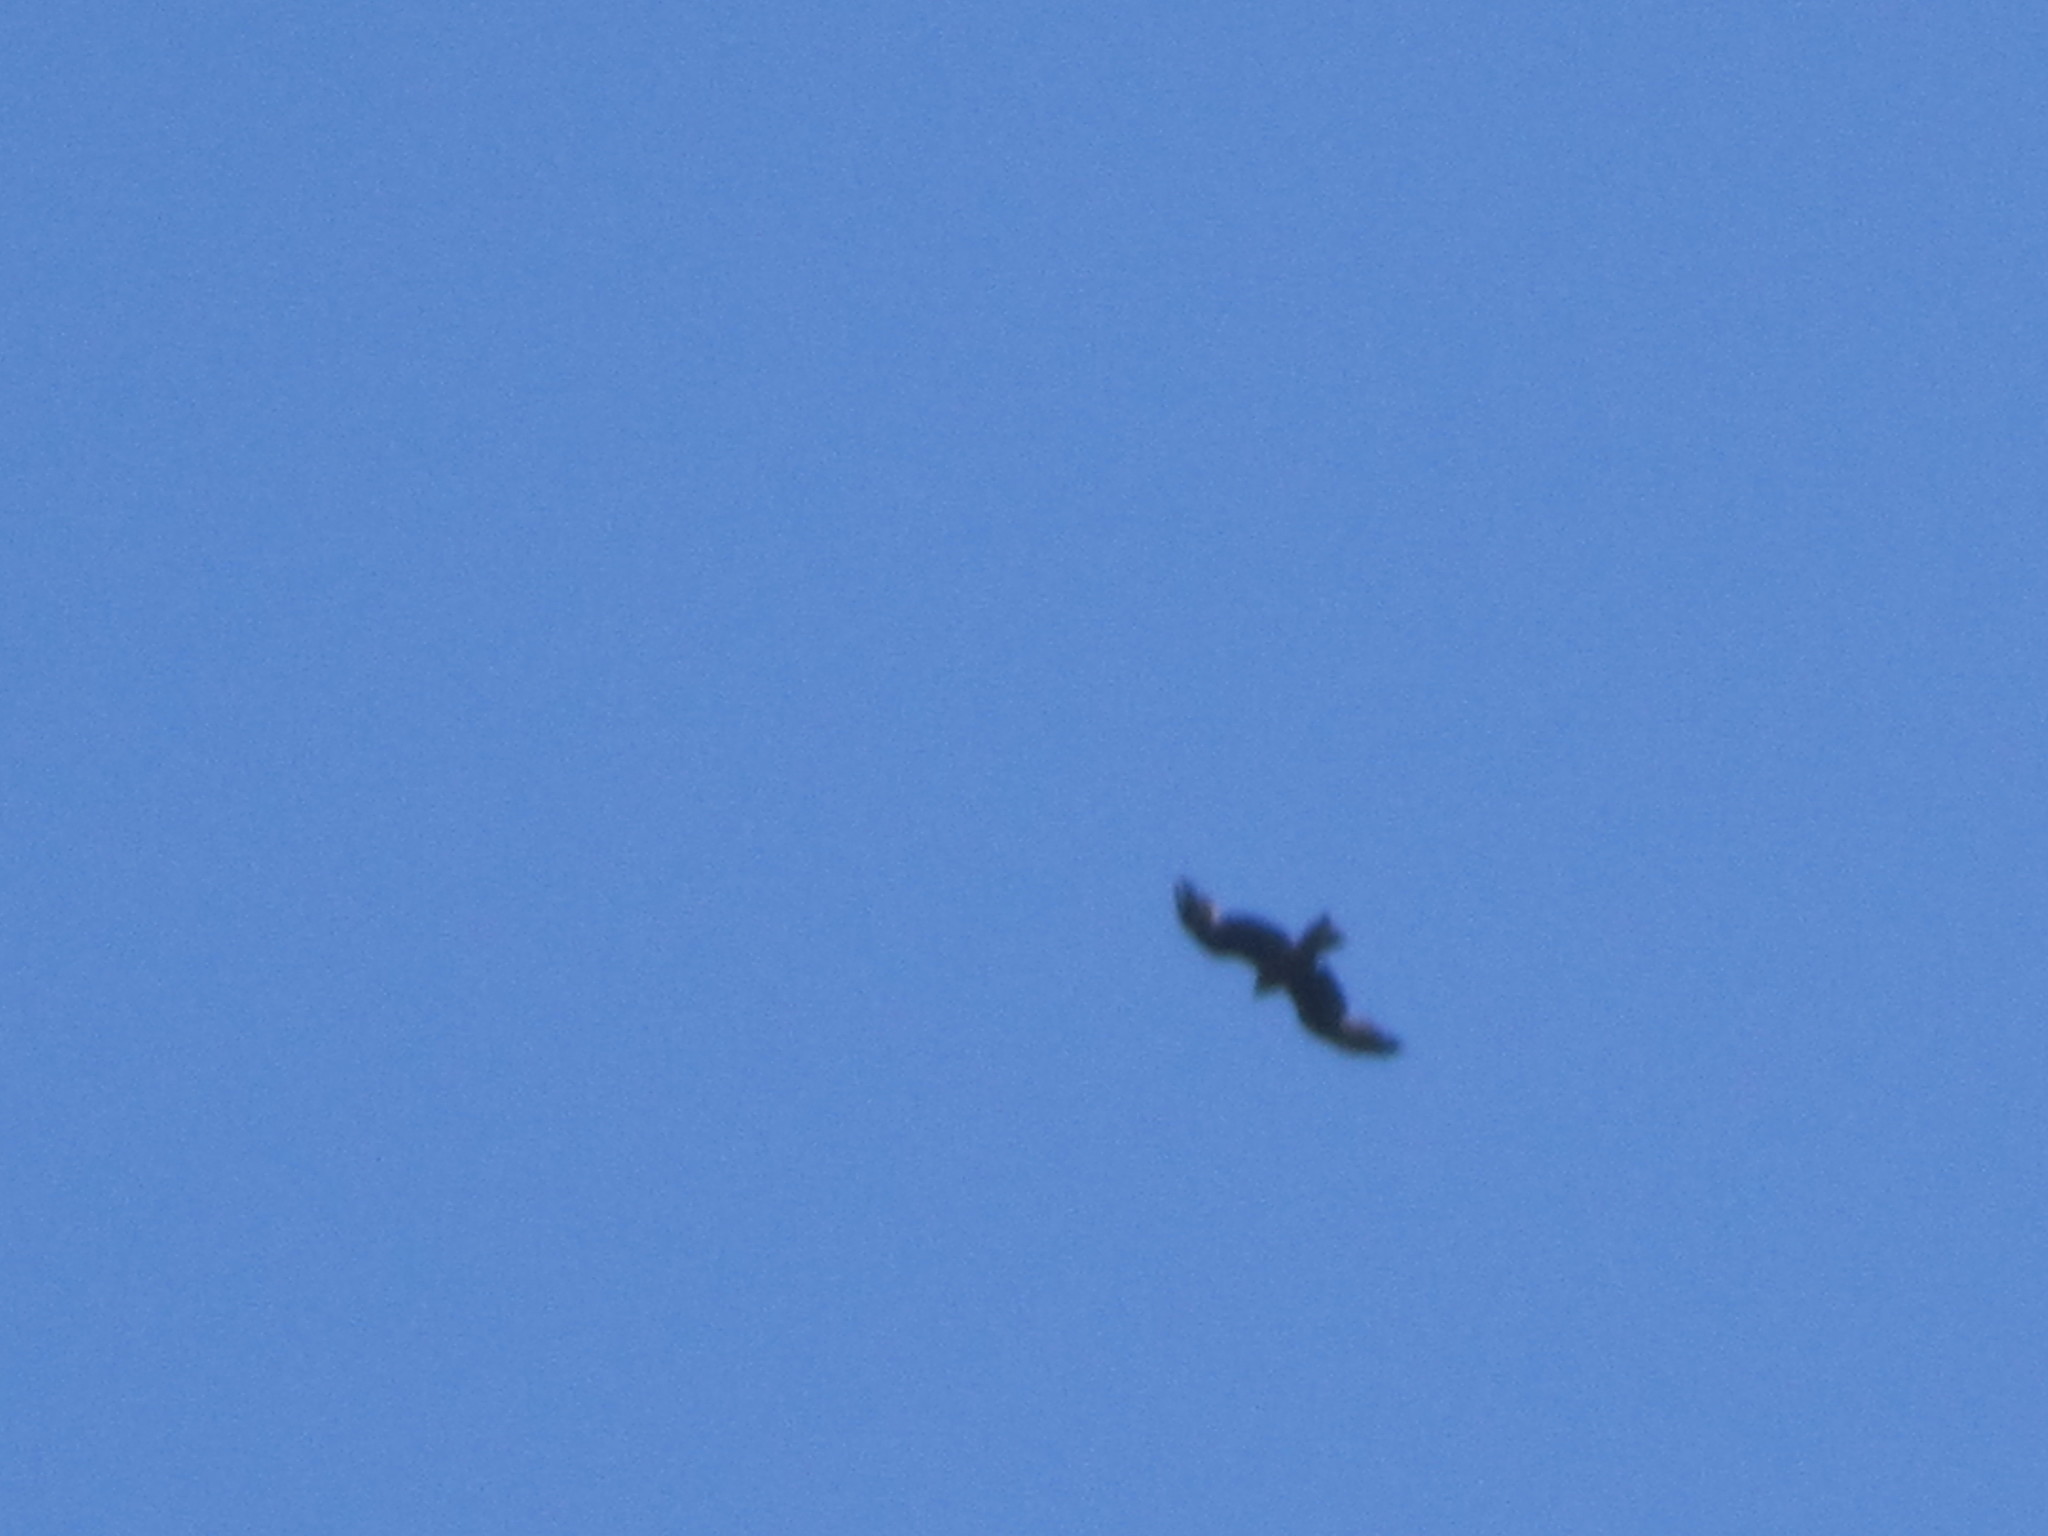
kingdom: Animalia
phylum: Chordata
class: Aves
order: Accipitriformes
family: Accipitridae
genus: Milvus
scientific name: Milvus migrans
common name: Black kite
